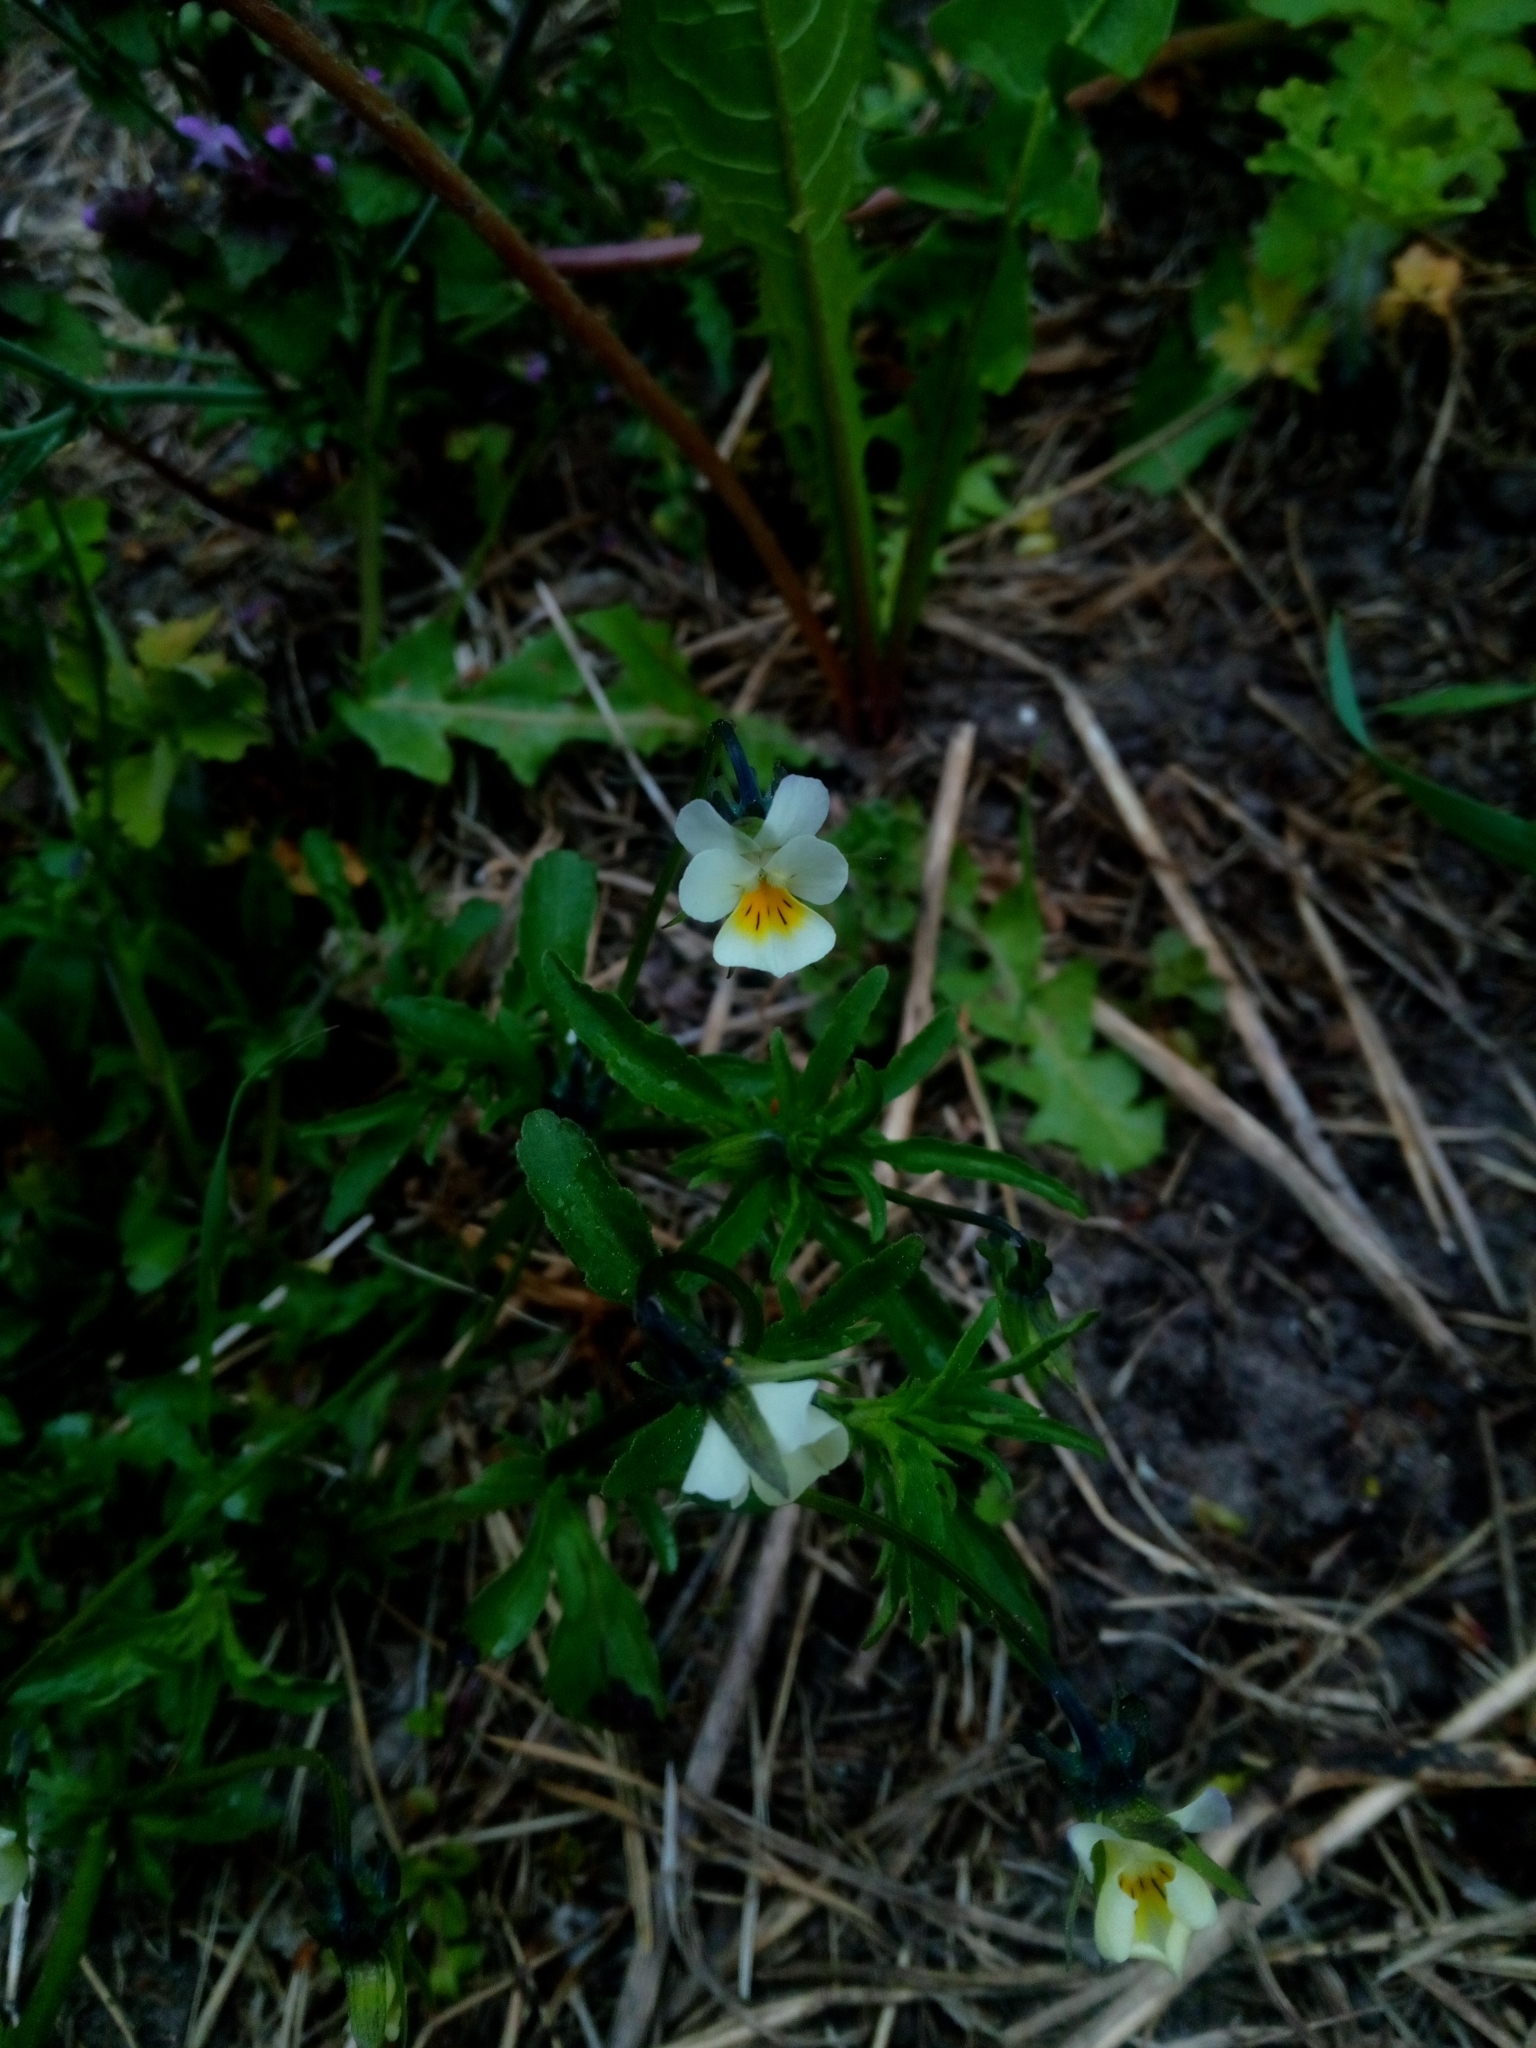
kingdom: Plantae
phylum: Tracheophyta
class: Magnoliopsida
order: Malpighiales
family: Violaceae
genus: Viola
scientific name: Viola arvensis
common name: Field pansy
